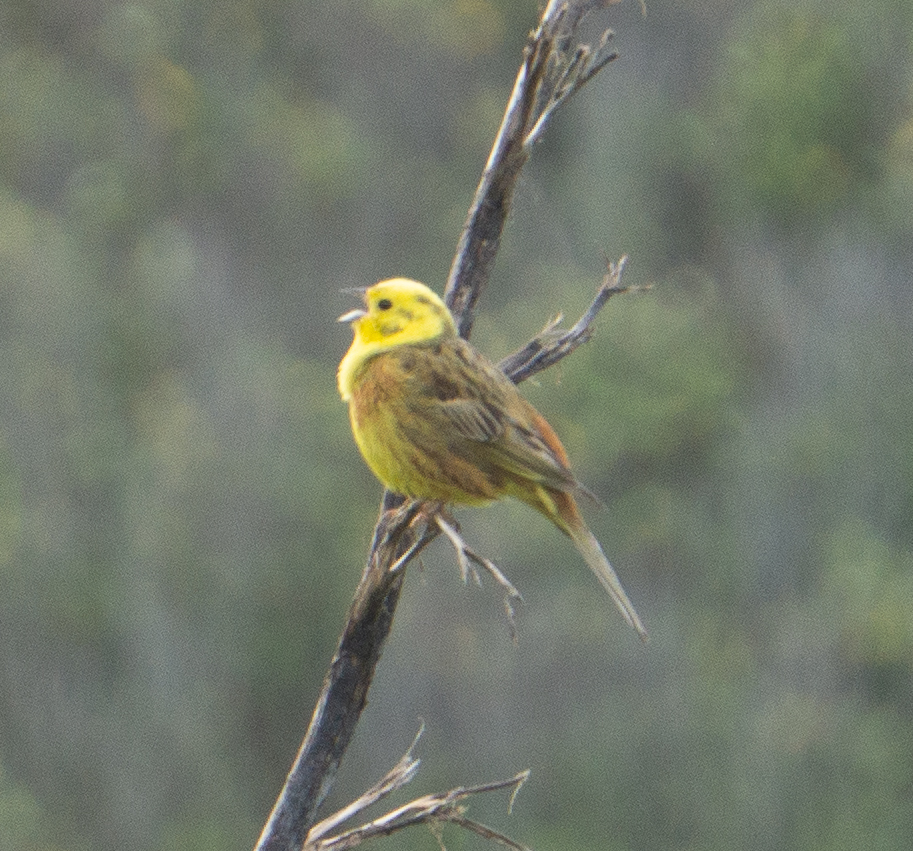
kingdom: Animalia
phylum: Chordata
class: Aves
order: Passeriformes
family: Emberizidae
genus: Emberiza
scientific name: Emberiza citrinella
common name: Yellowhammer
